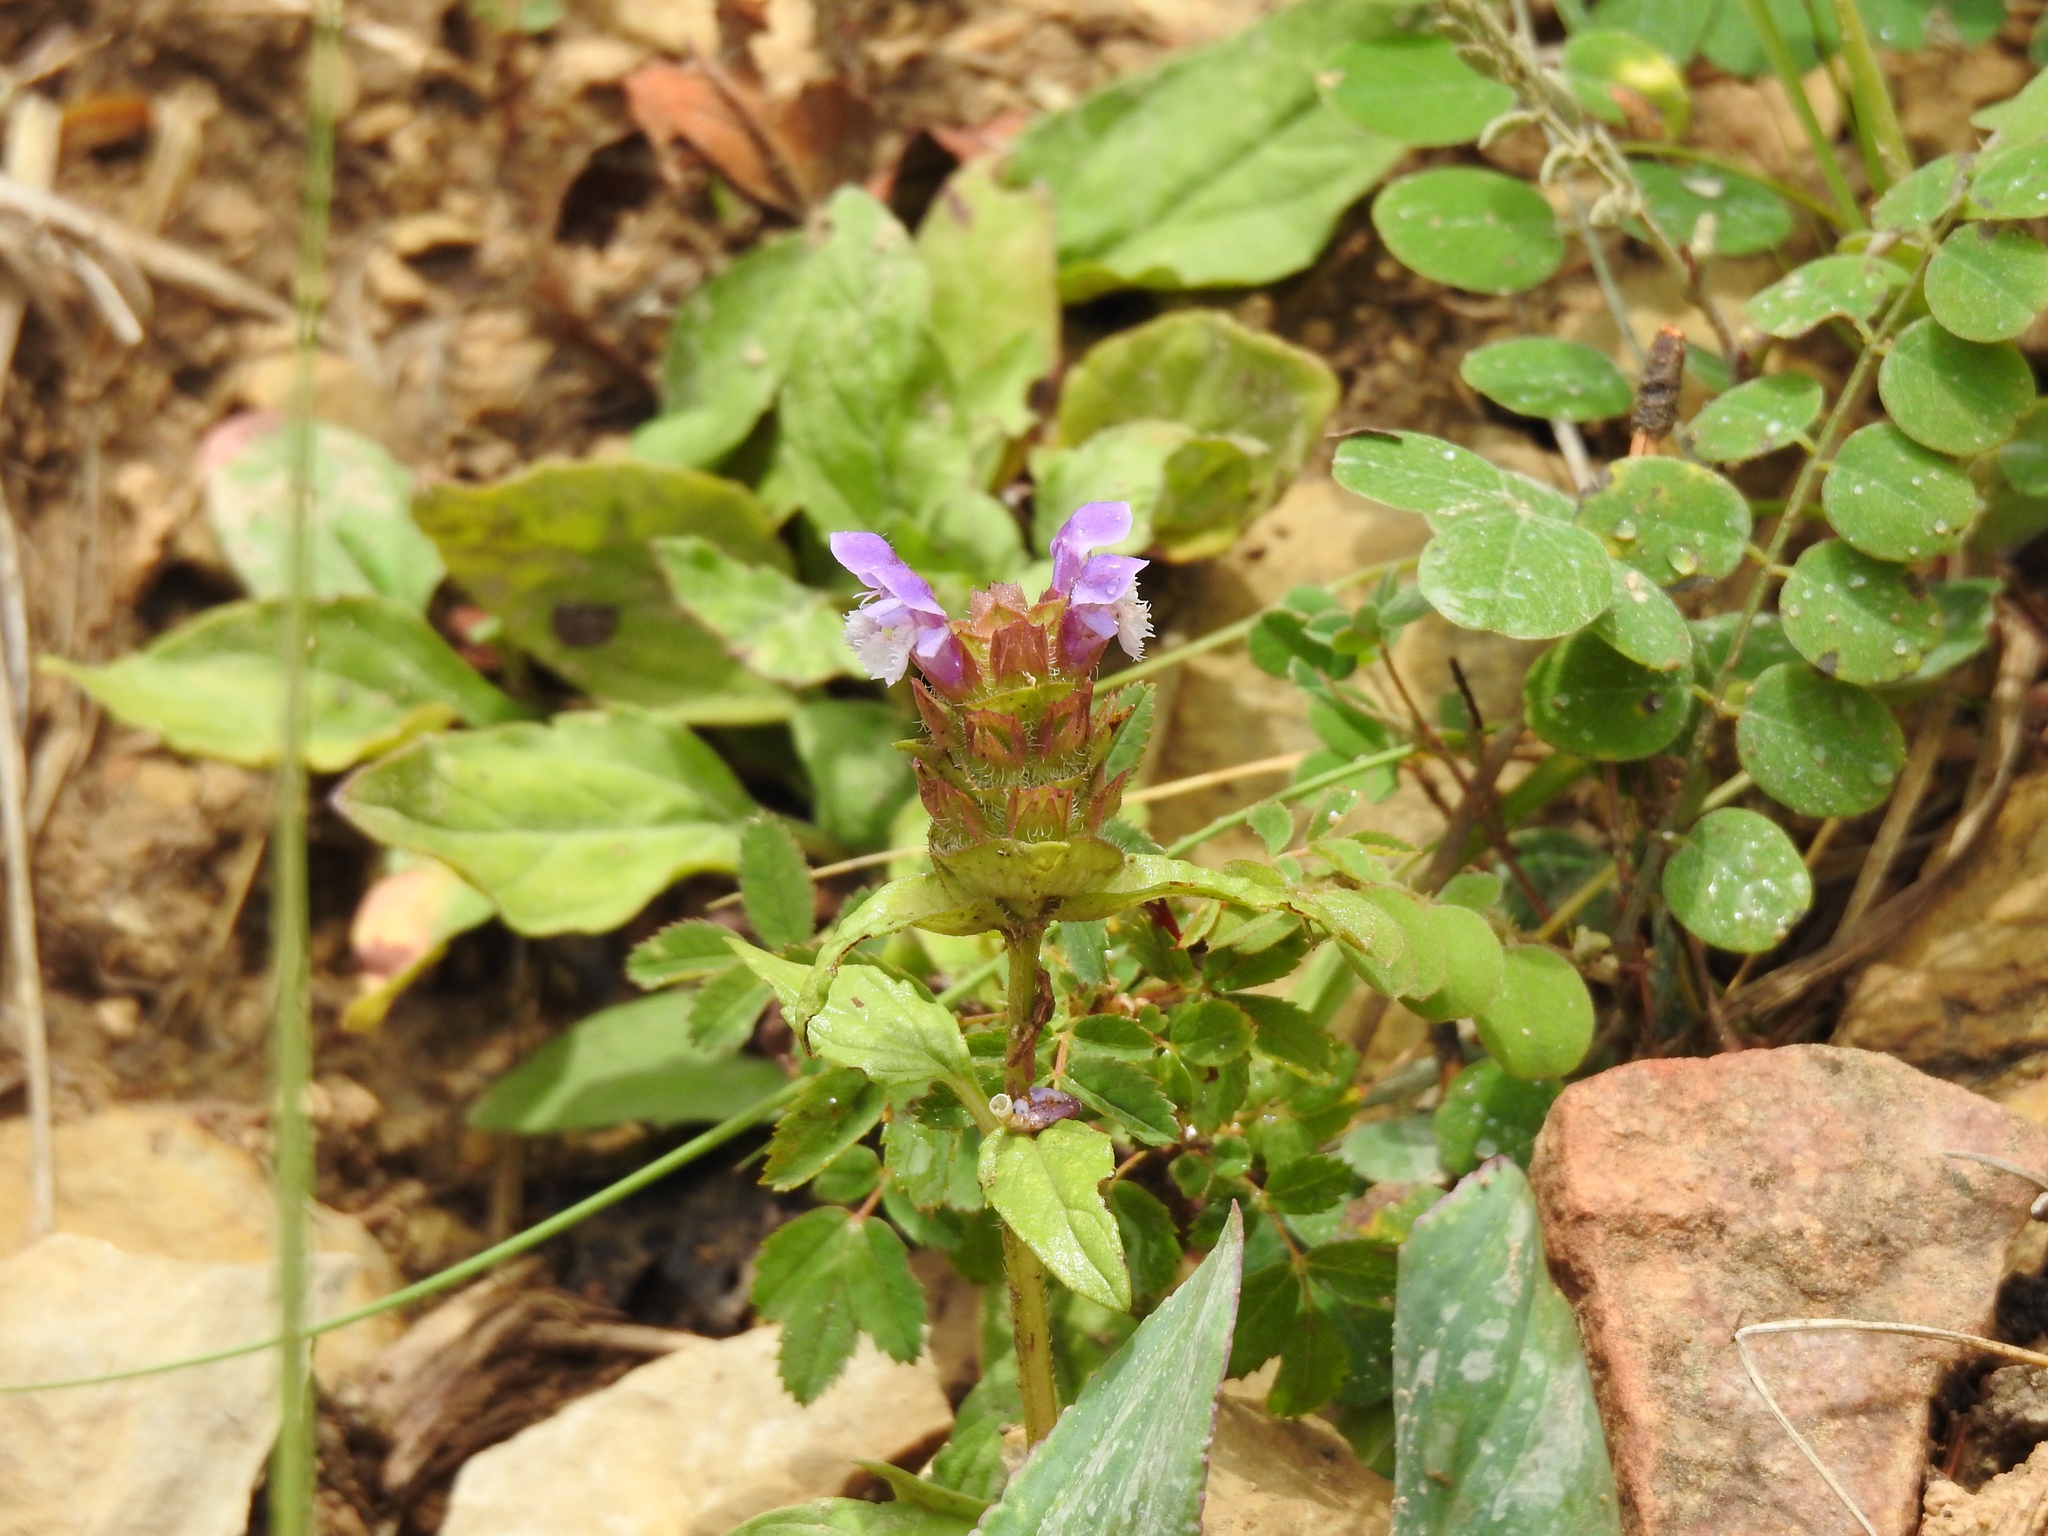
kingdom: Plantae
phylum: Tracheophyta
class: Magnoliopsida
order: Lamiales
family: Lamiaceae
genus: Prunella
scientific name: Prunella vulgaris
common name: Heal-all
